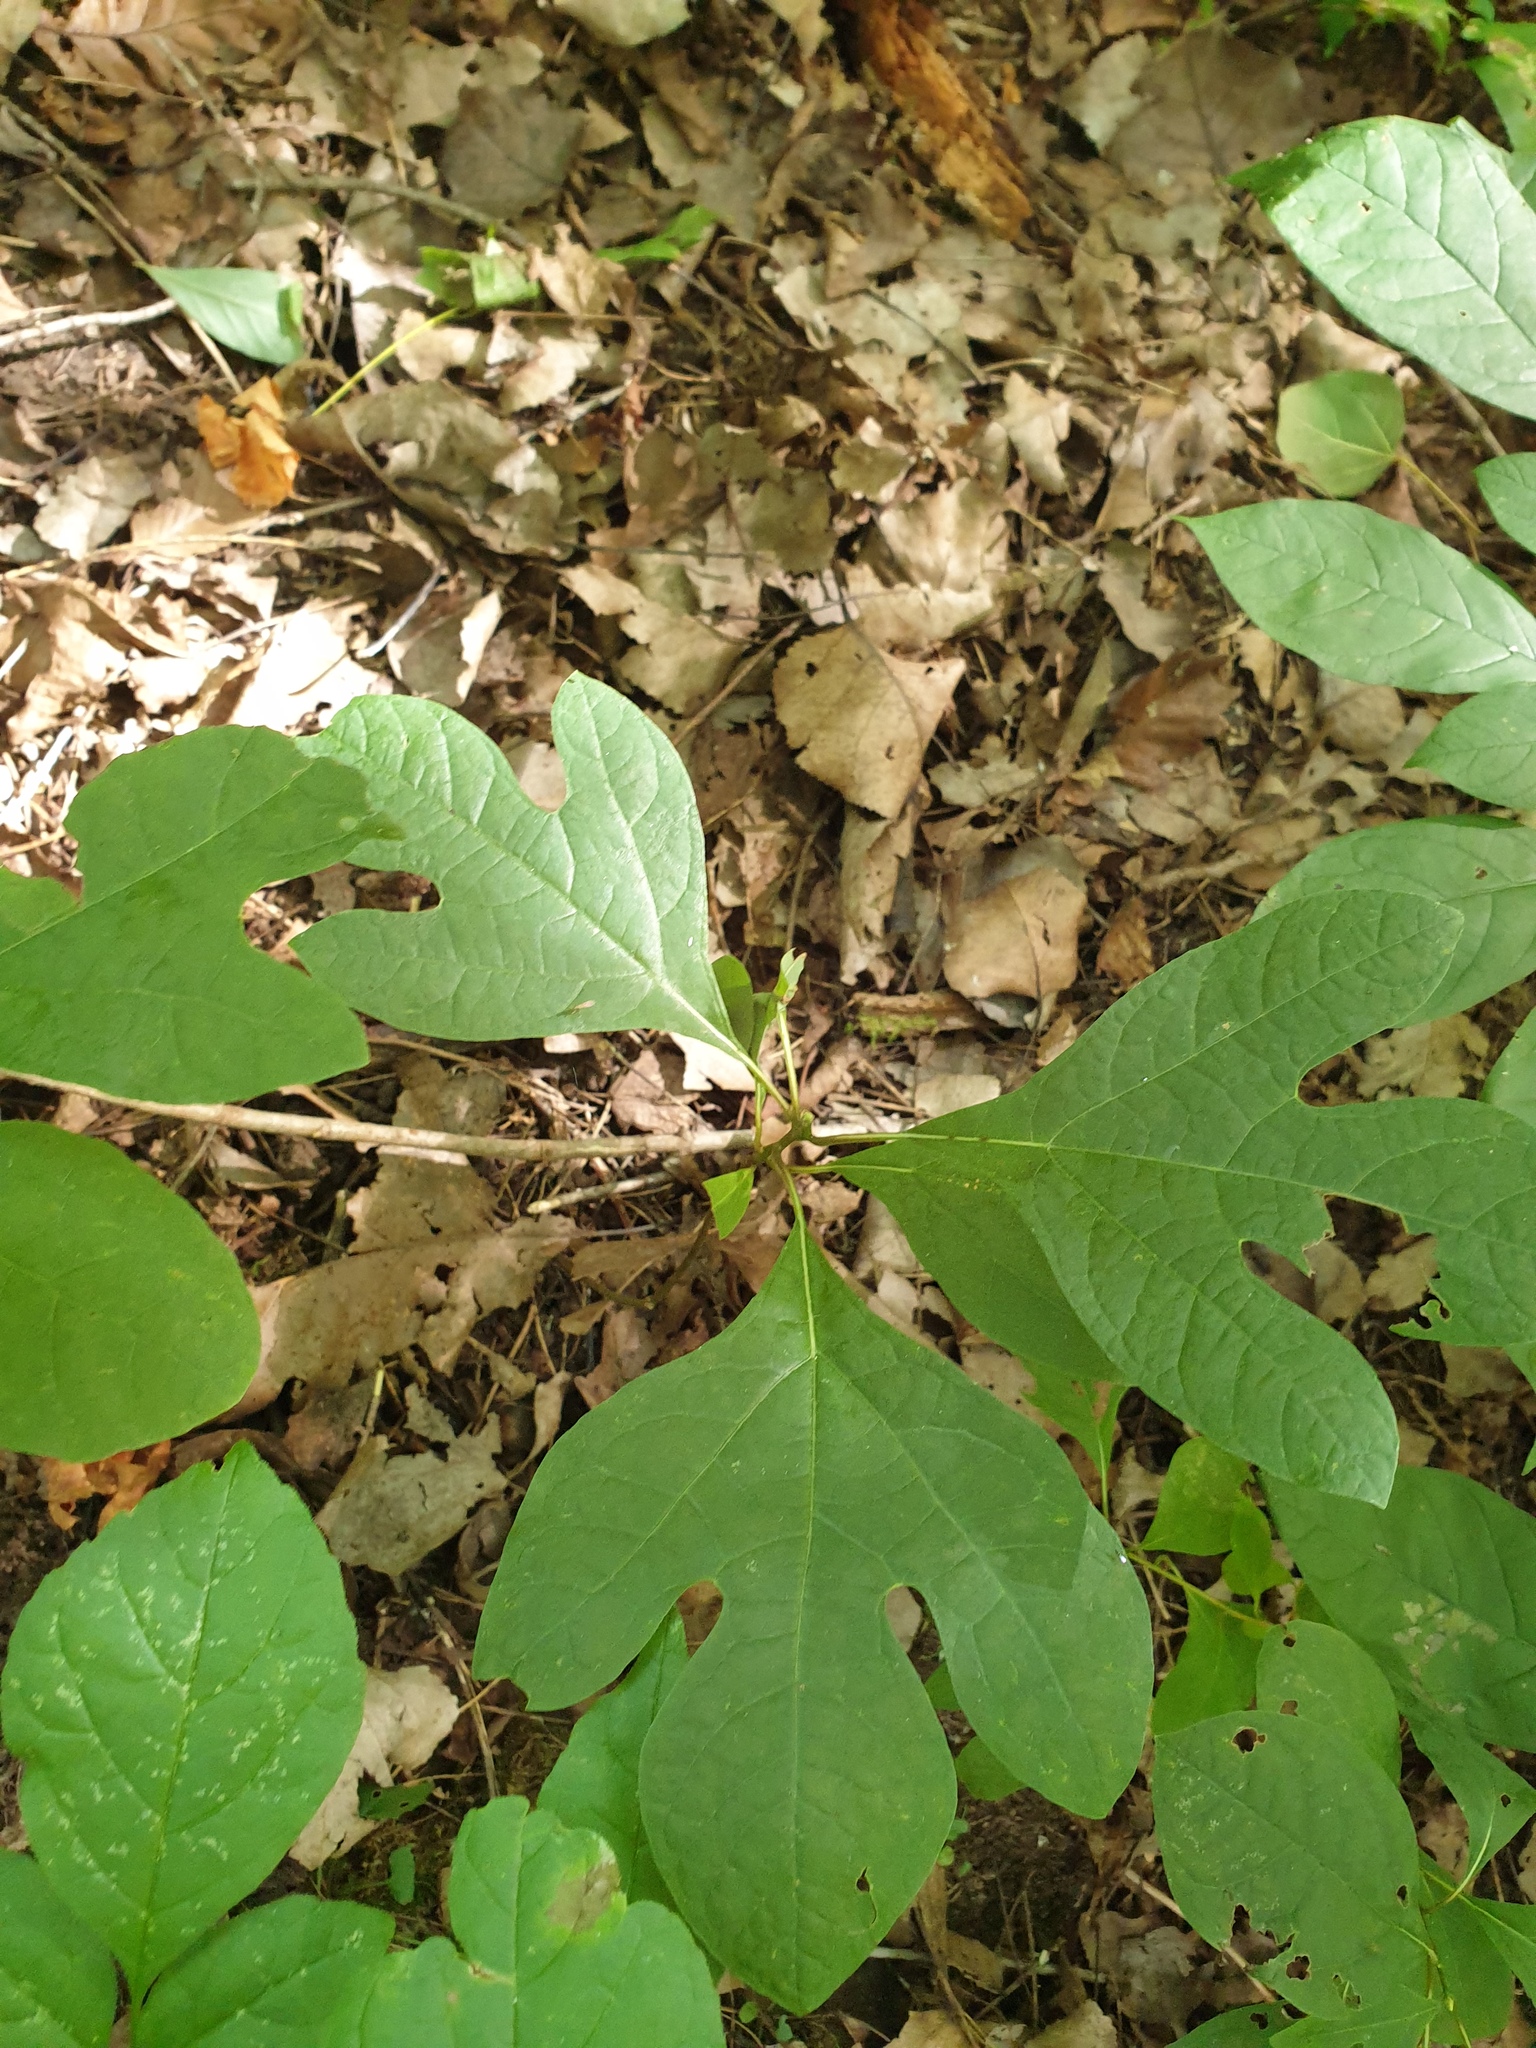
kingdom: Plantae
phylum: Tracheophyta
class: Magnoliopsida
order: Laurales
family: Lauraceae
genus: Sassafras
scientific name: Sassafras albidum
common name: Sassafras
